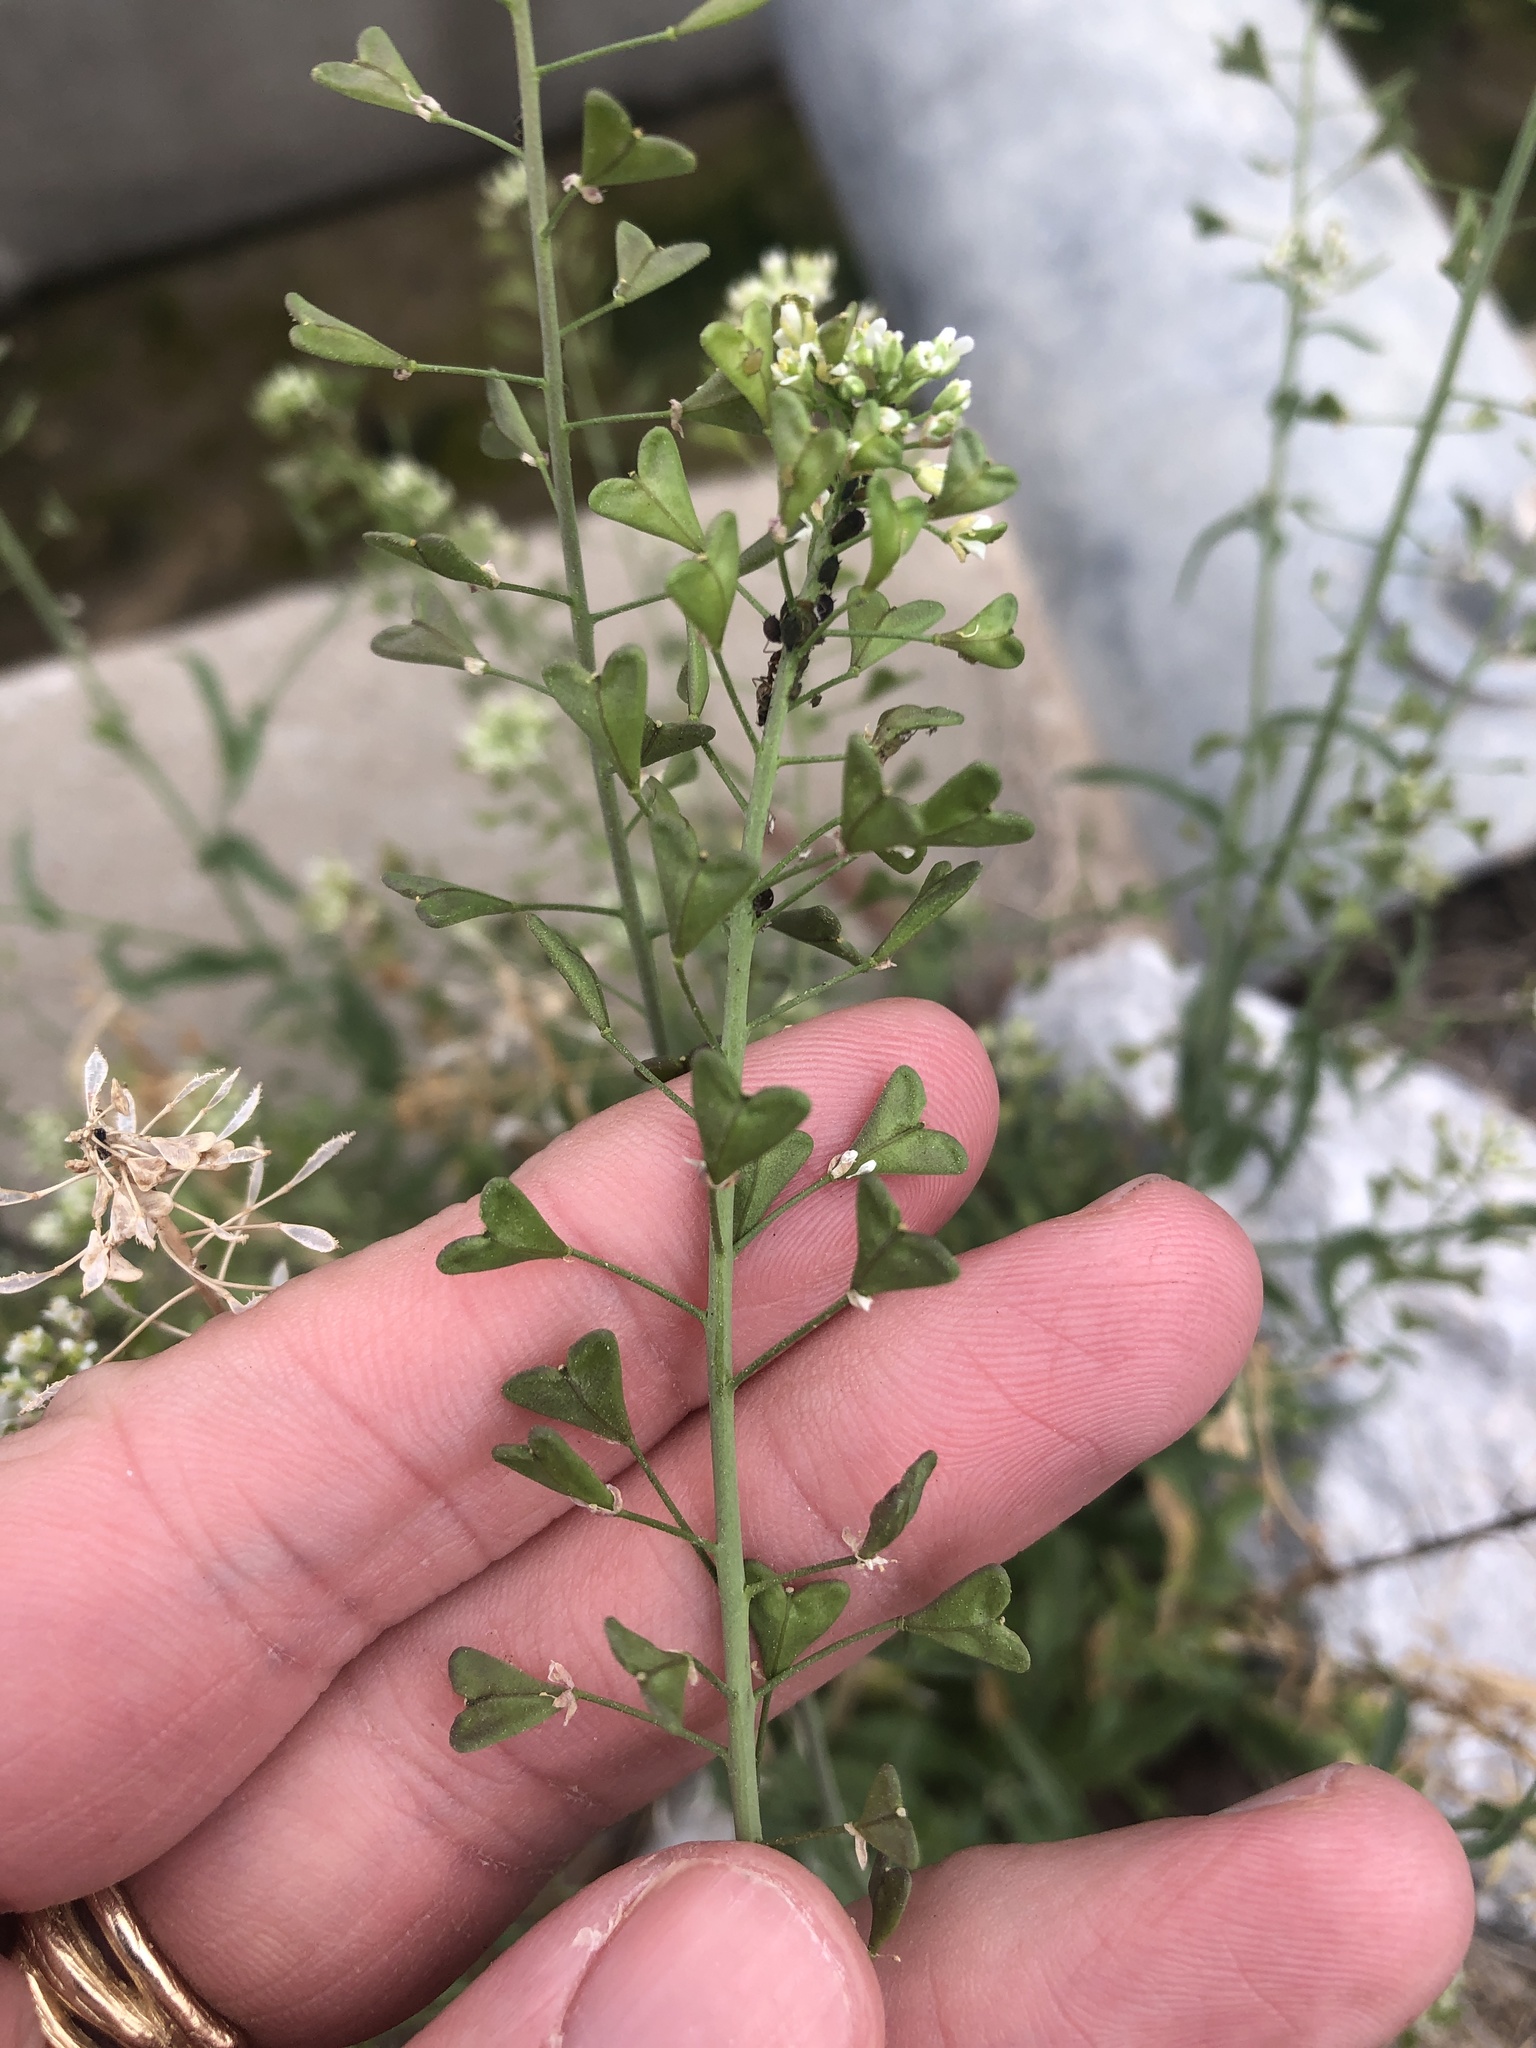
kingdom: Plantae
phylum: Tracheophyta
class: Magnoliopsida
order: Brassicales
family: Brassicaceae
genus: Capsella
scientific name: Capsella bursa-pastoris
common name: Shepherd's purse
